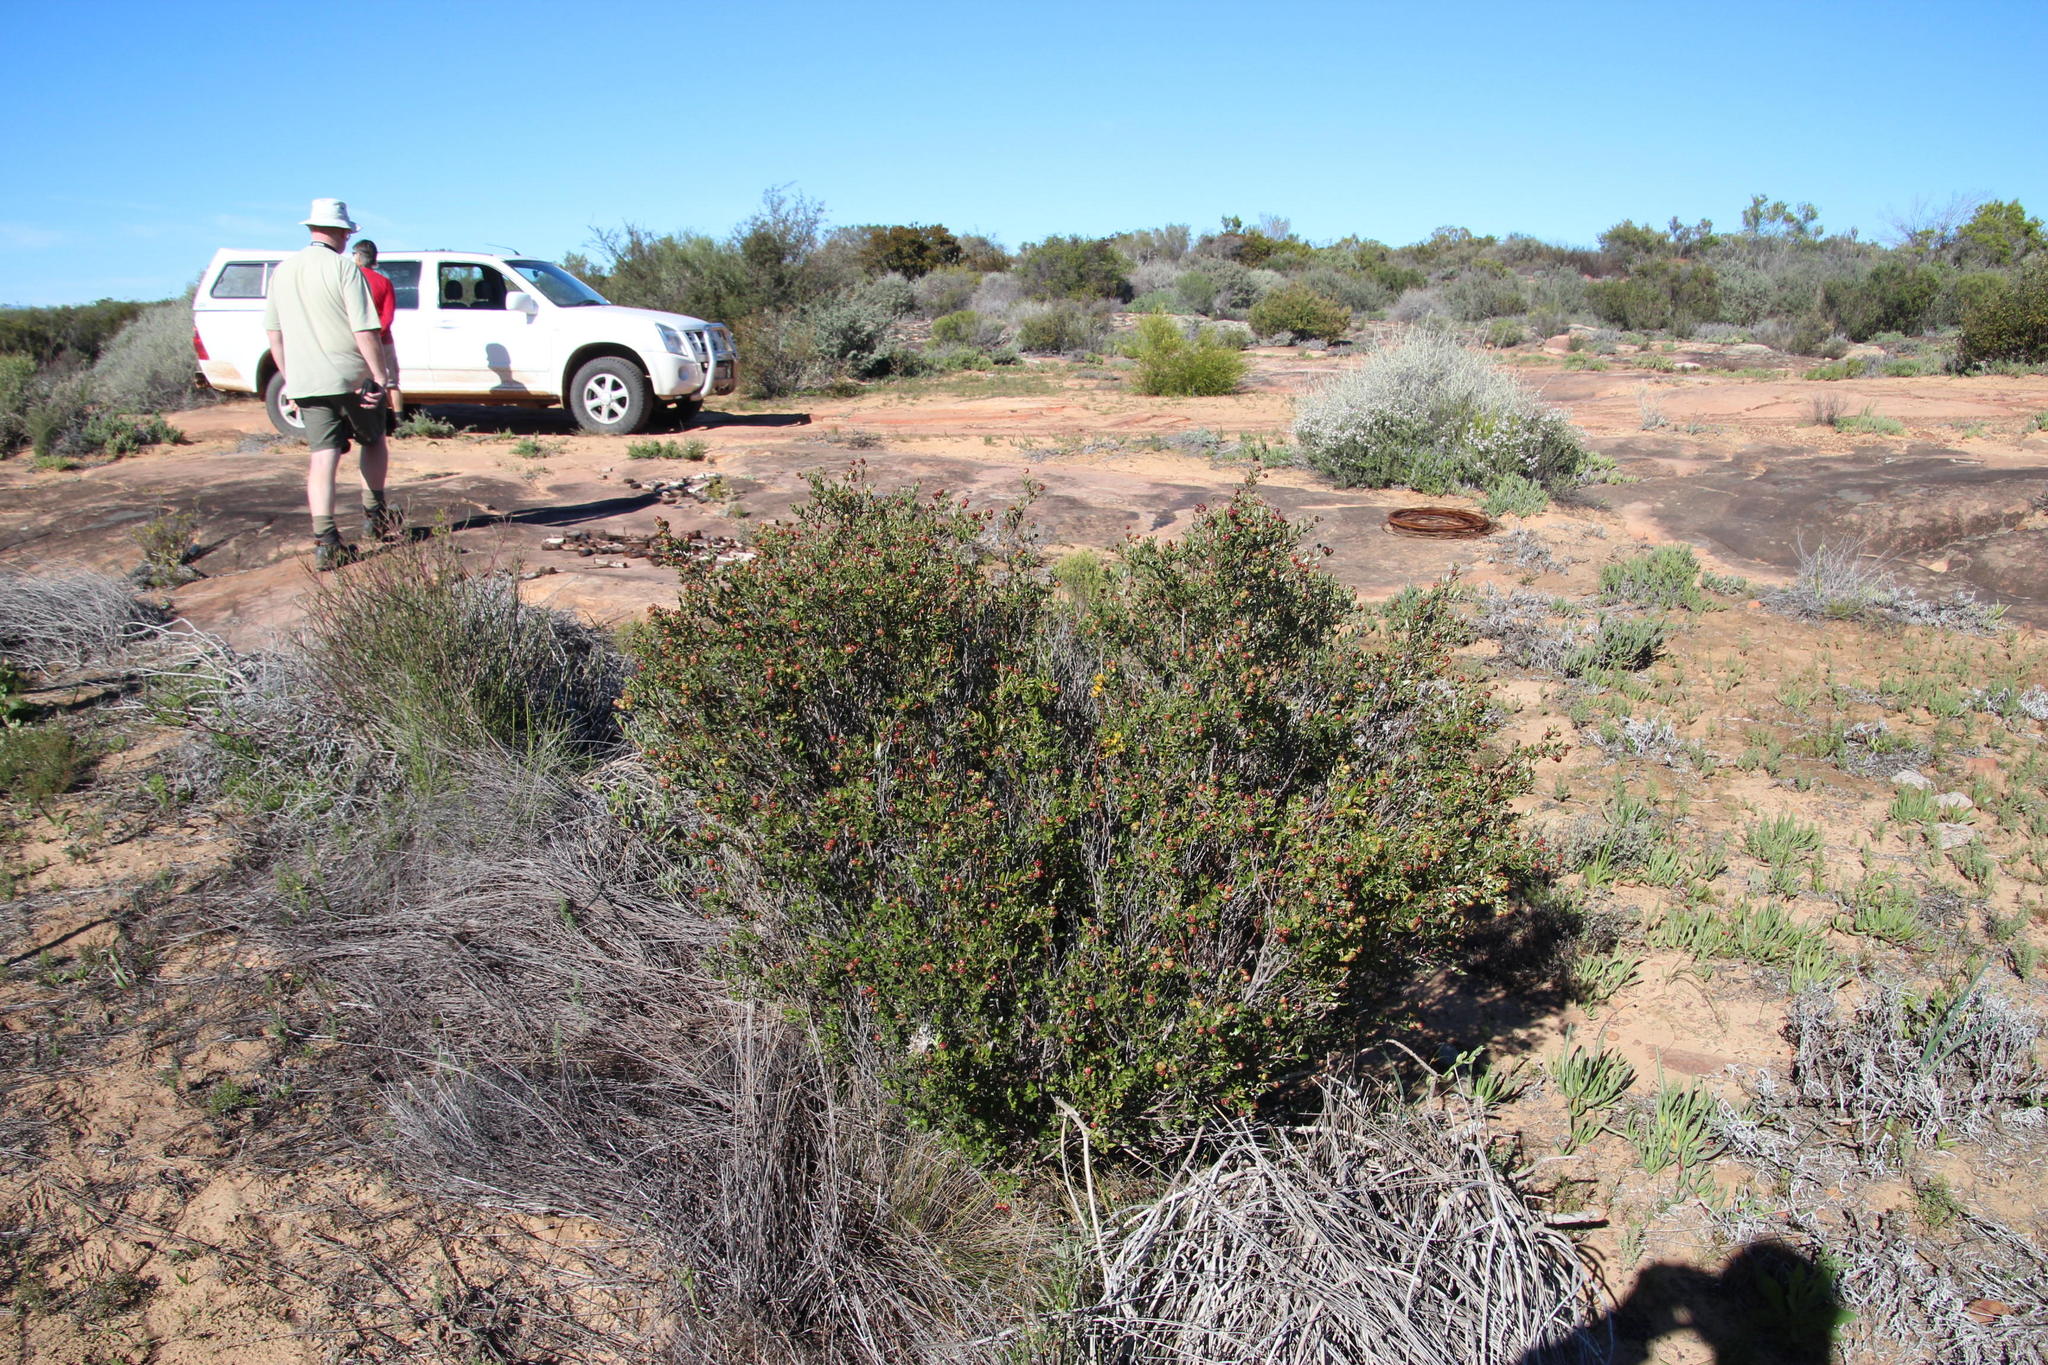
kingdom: Plantae
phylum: Tracheophyta
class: Magnoliopsida
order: Rosales
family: Rhamnaceae
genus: Phylica
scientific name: Phylica oleifolia
